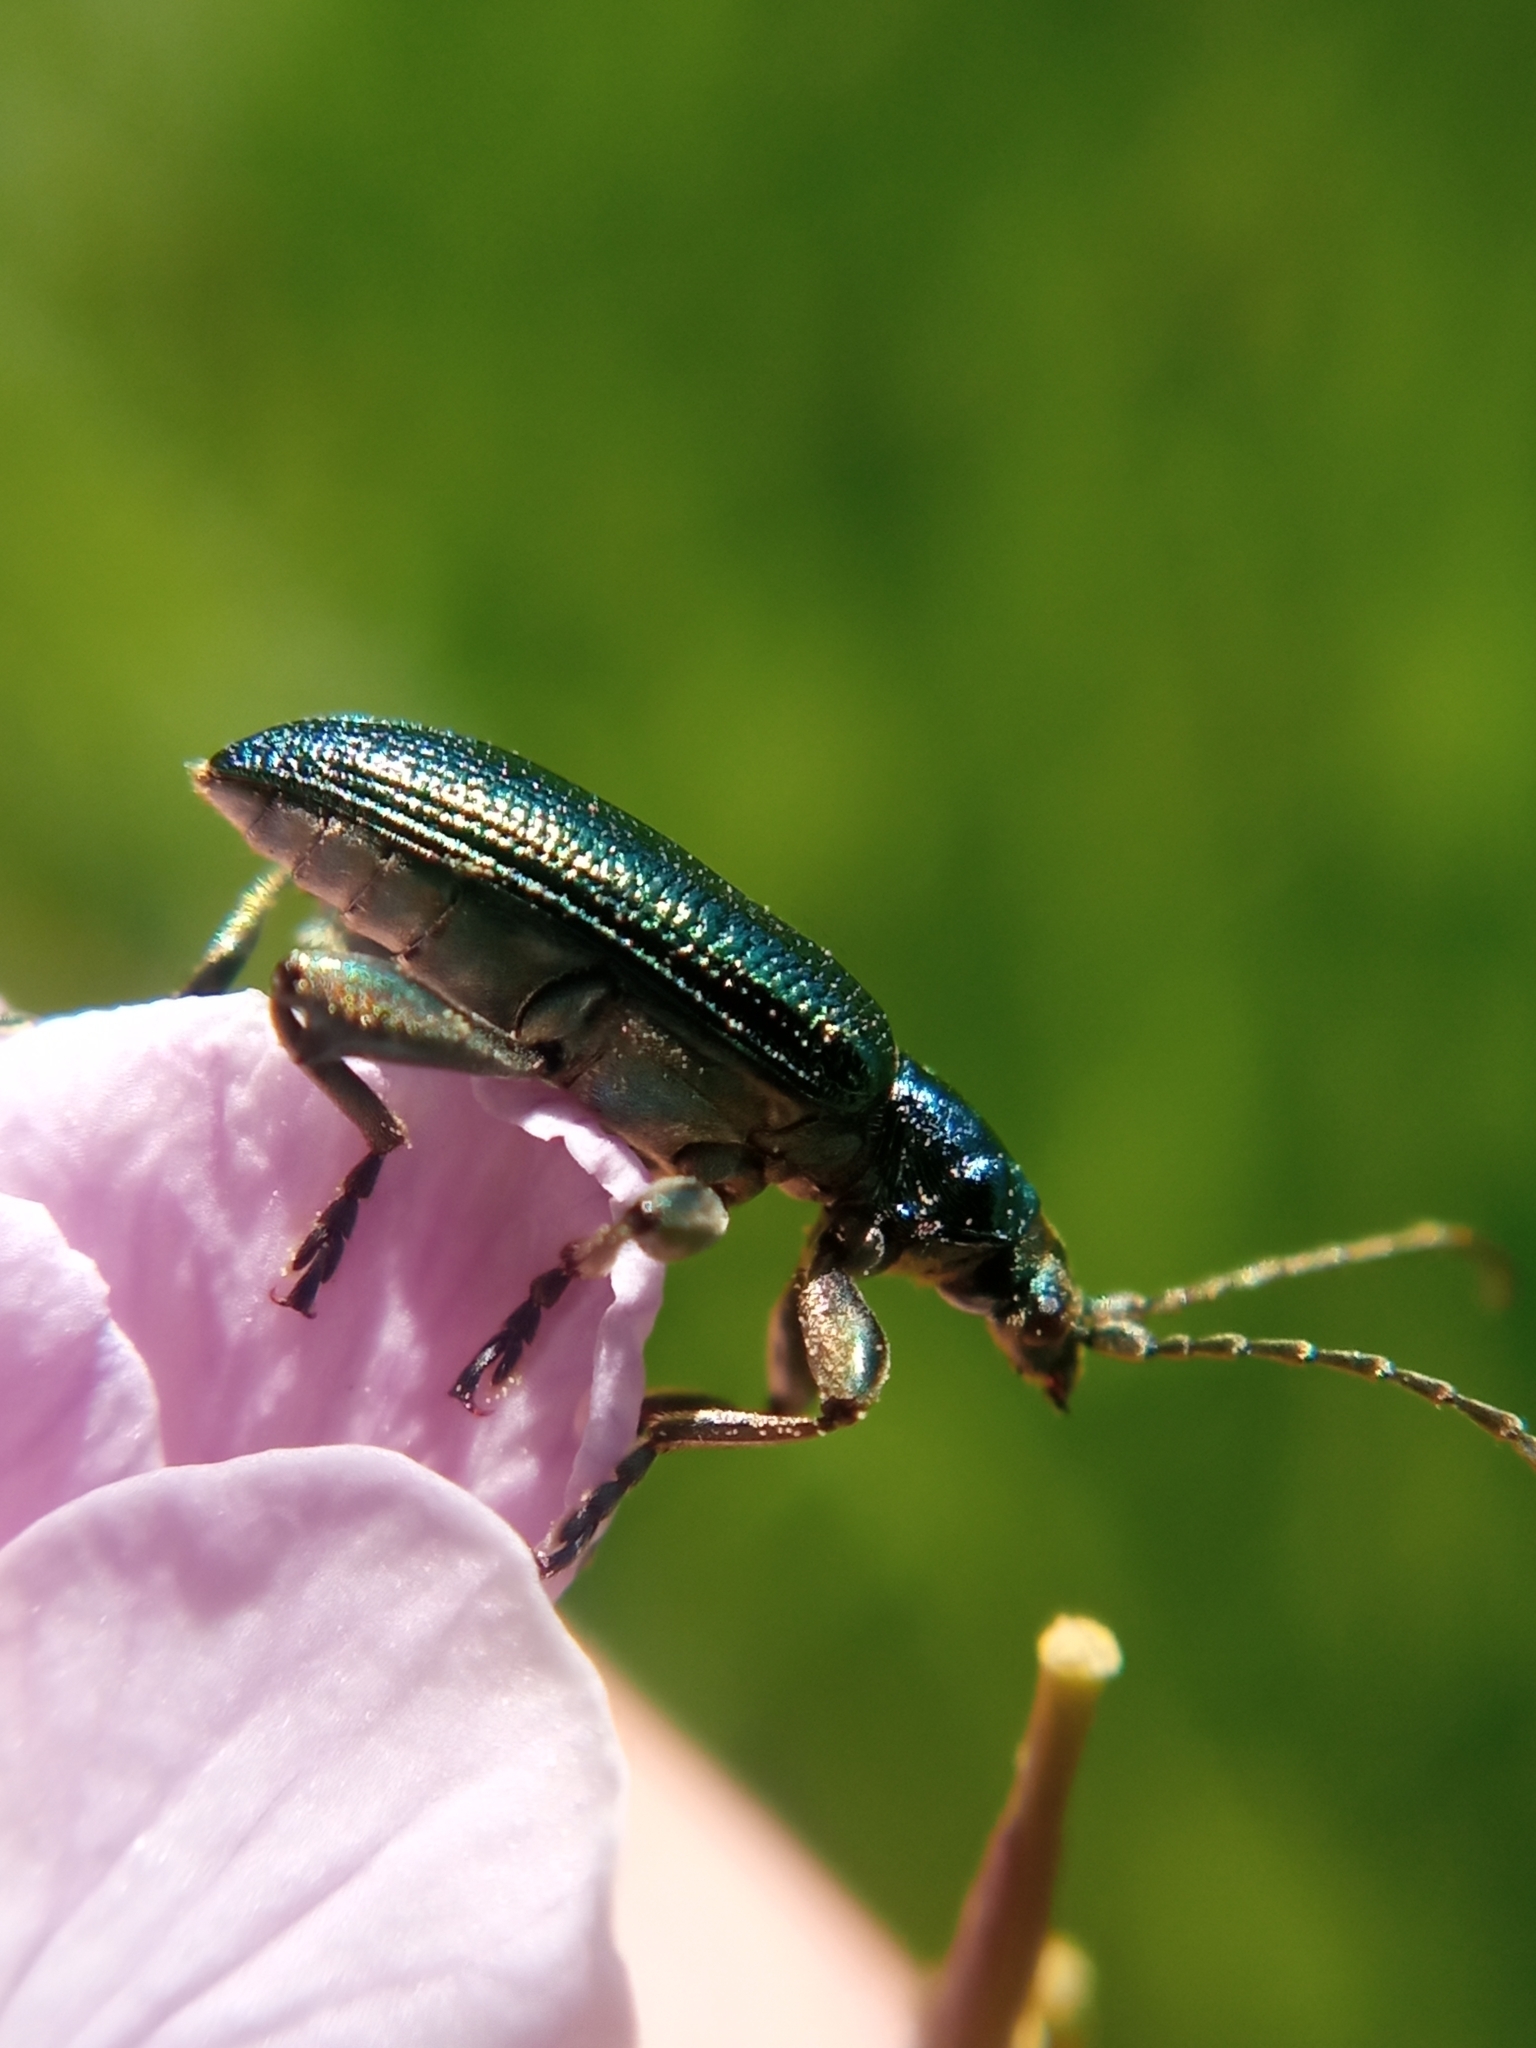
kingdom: Animalia
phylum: Arthropoda
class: Insecta
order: Coleoptera
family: Chrysomelidae
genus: Plateumaris
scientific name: Plateumaris sericea
